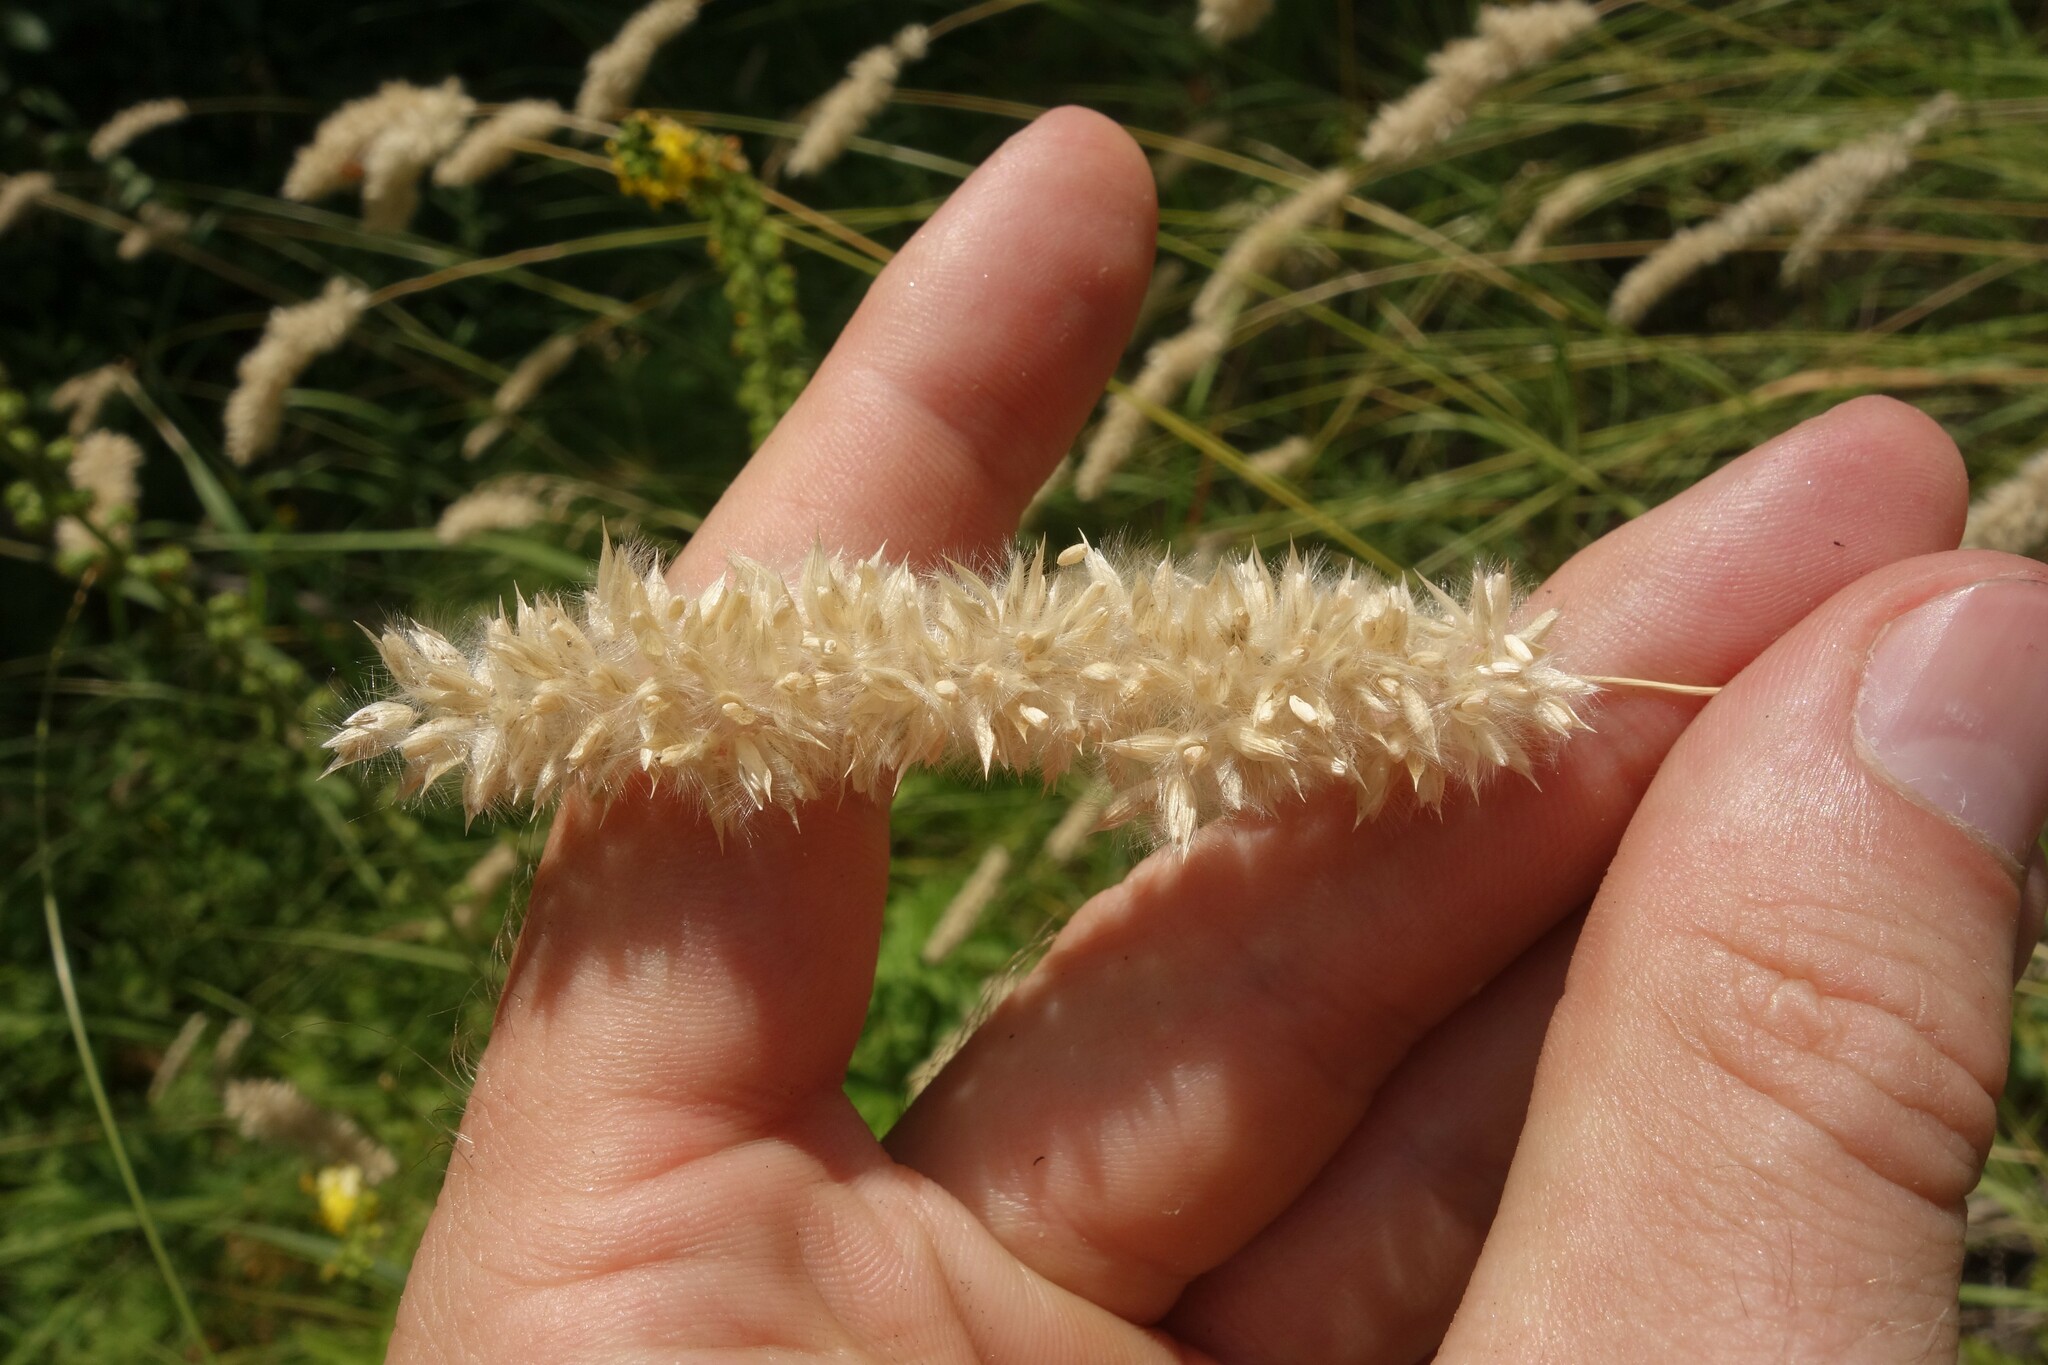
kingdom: Plantae
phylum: Tracheophyta
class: Liliopsida
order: Poales
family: Poaceae
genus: Melica
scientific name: Melica transsilvanica
